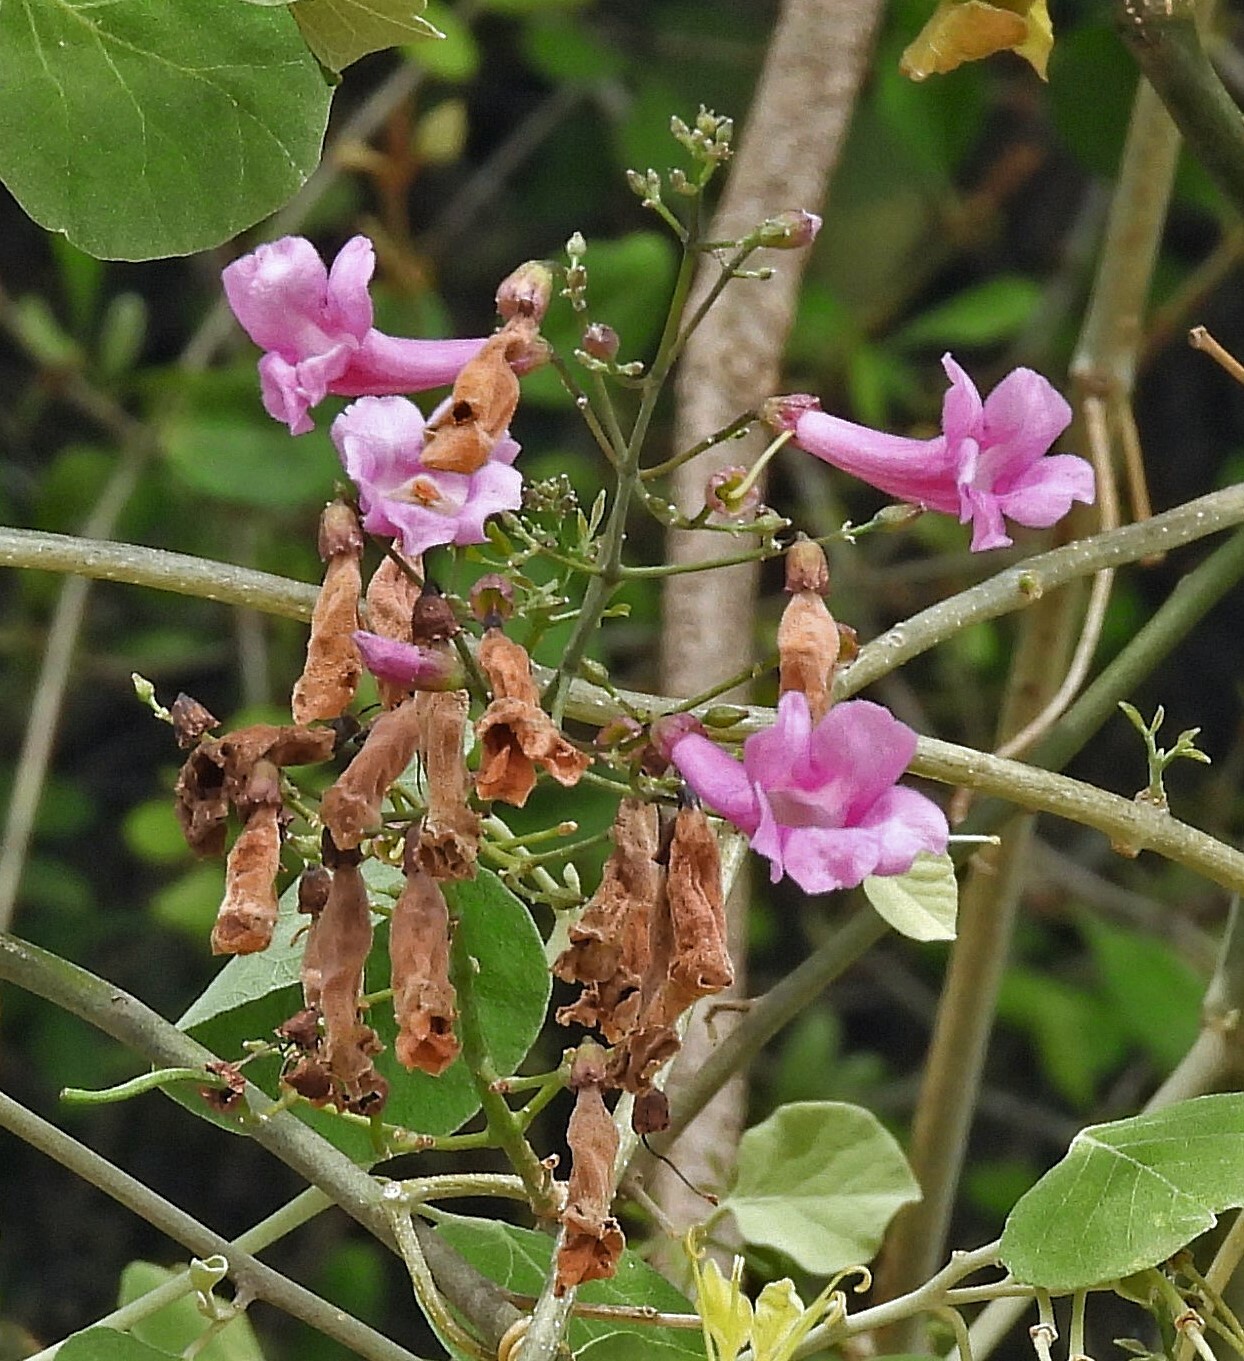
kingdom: Plantae
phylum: Tracheophyta
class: Magnoliopsida
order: Lamiales
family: Bignoniaceae
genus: Tanaecium
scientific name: Tanaecium dichotomum
